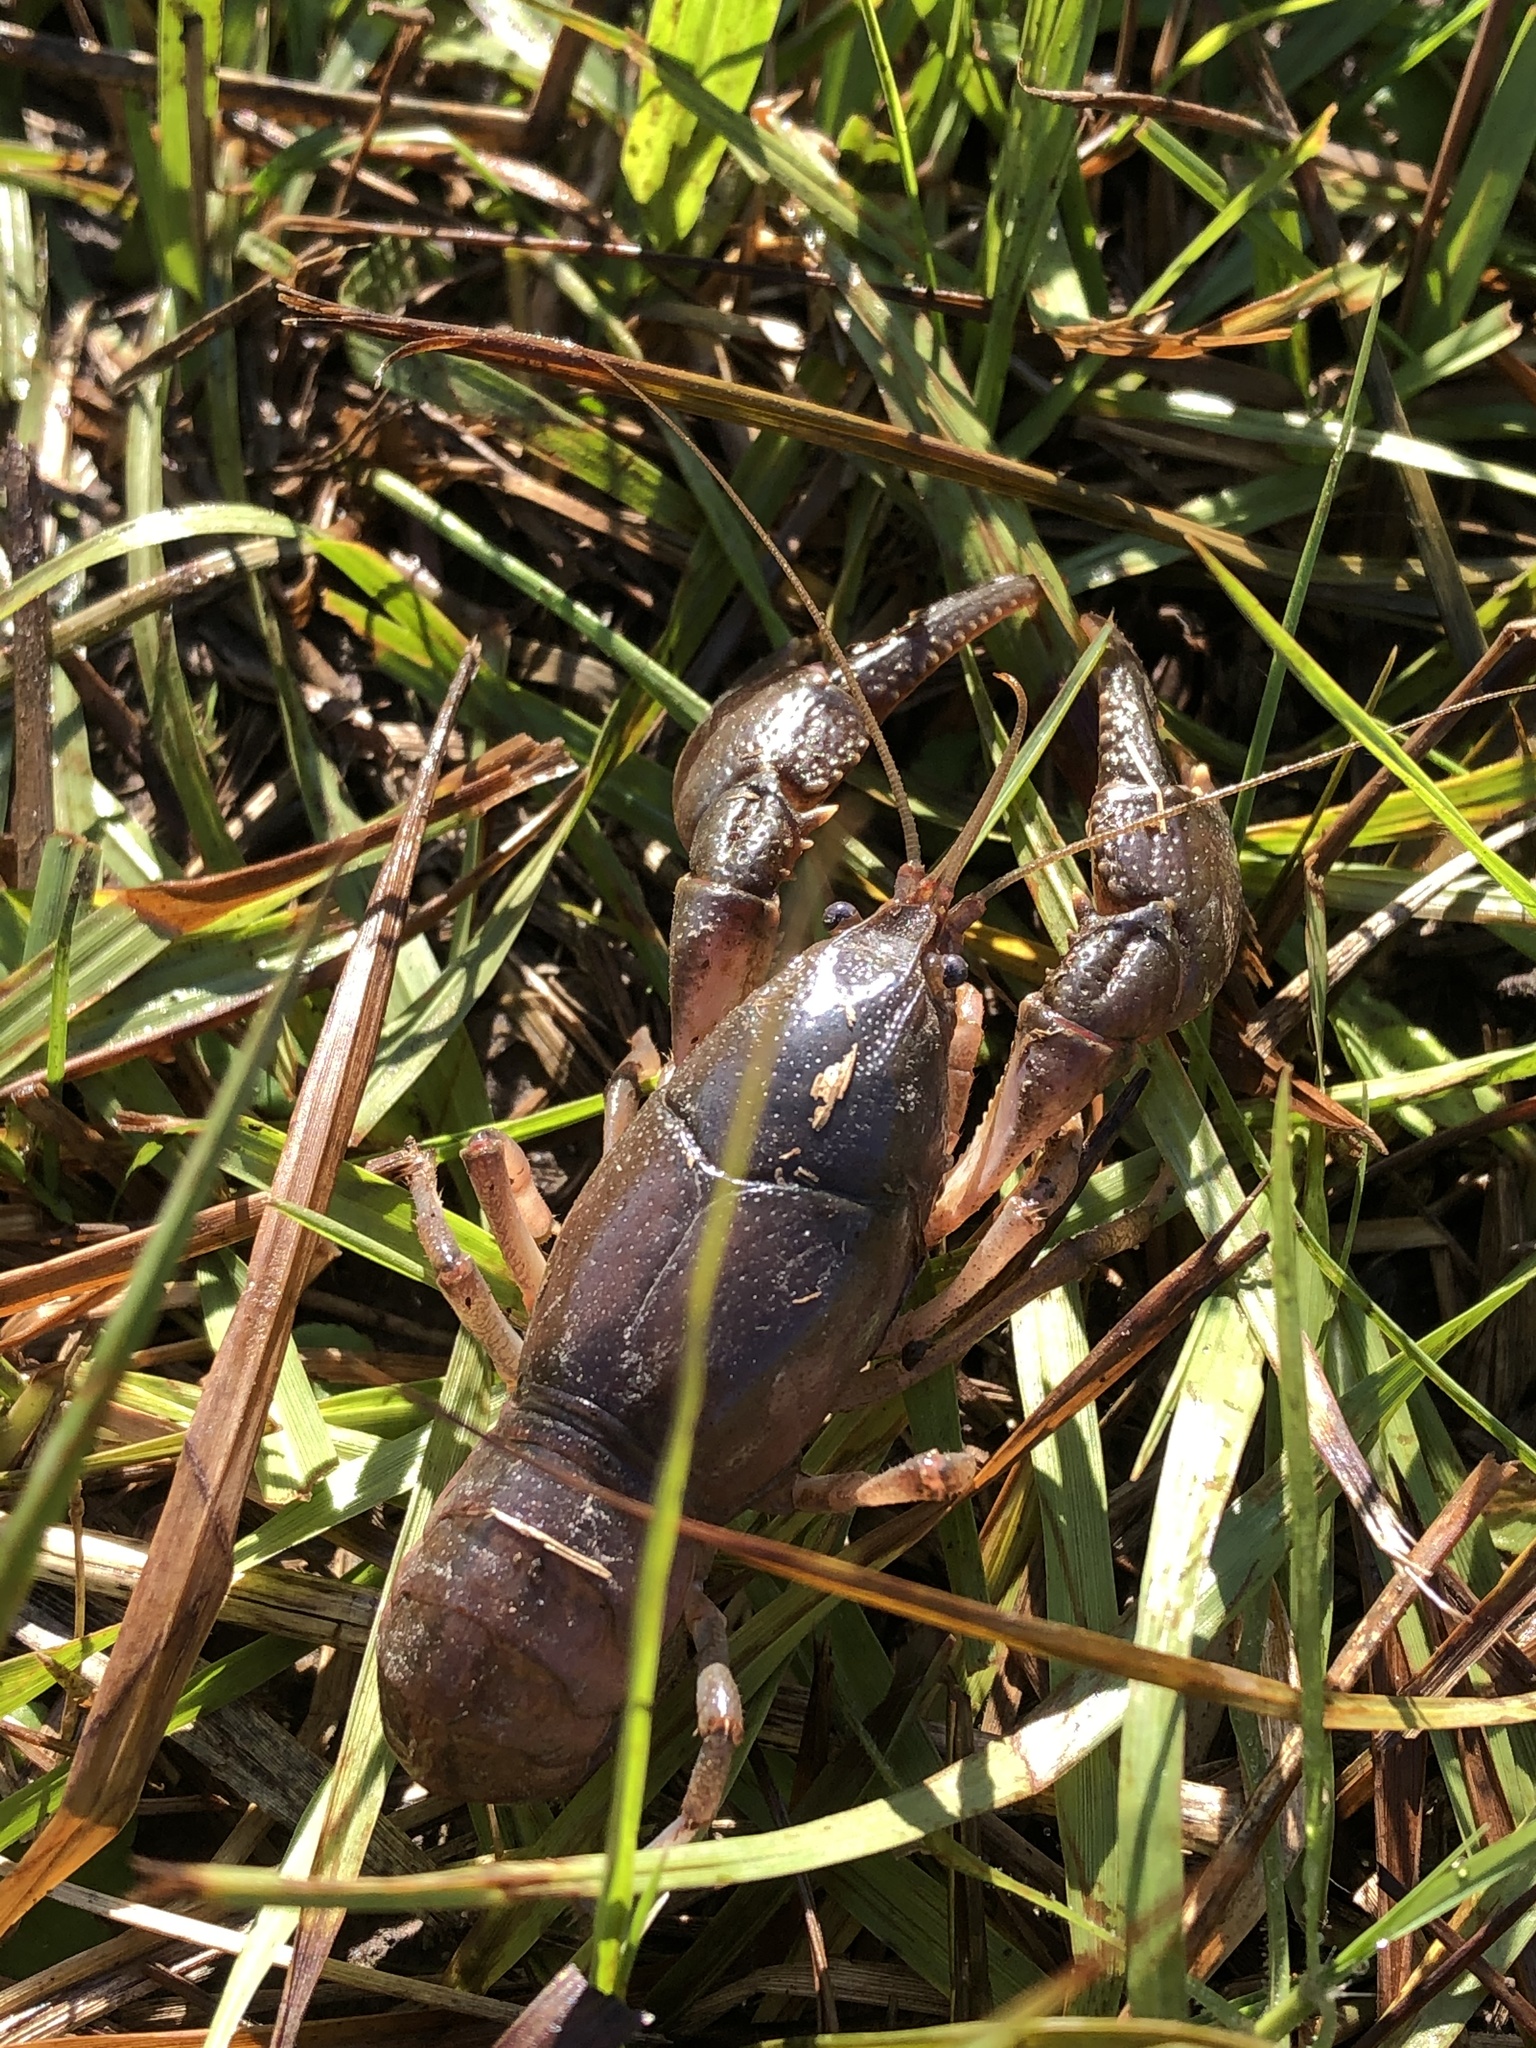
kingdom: Animalia
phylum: Arthropoda
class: Malacostraca
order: Decapoda
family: Cambaridae
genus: Creaserinus
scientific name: Creaserinus fodiens
